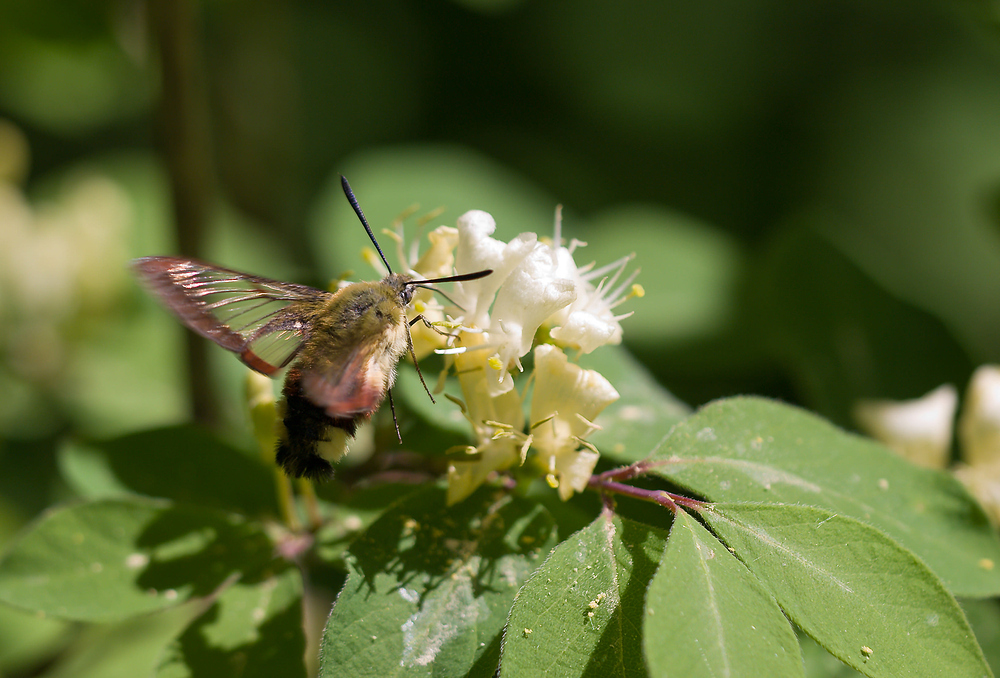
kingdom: Animalia
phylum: Arthropoda
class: Insecta
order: Lepidoptera
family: Sphingidae
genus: Hemaris
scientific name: Hemaris fuciformis
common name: Broad-bordered bee hawk-moth
